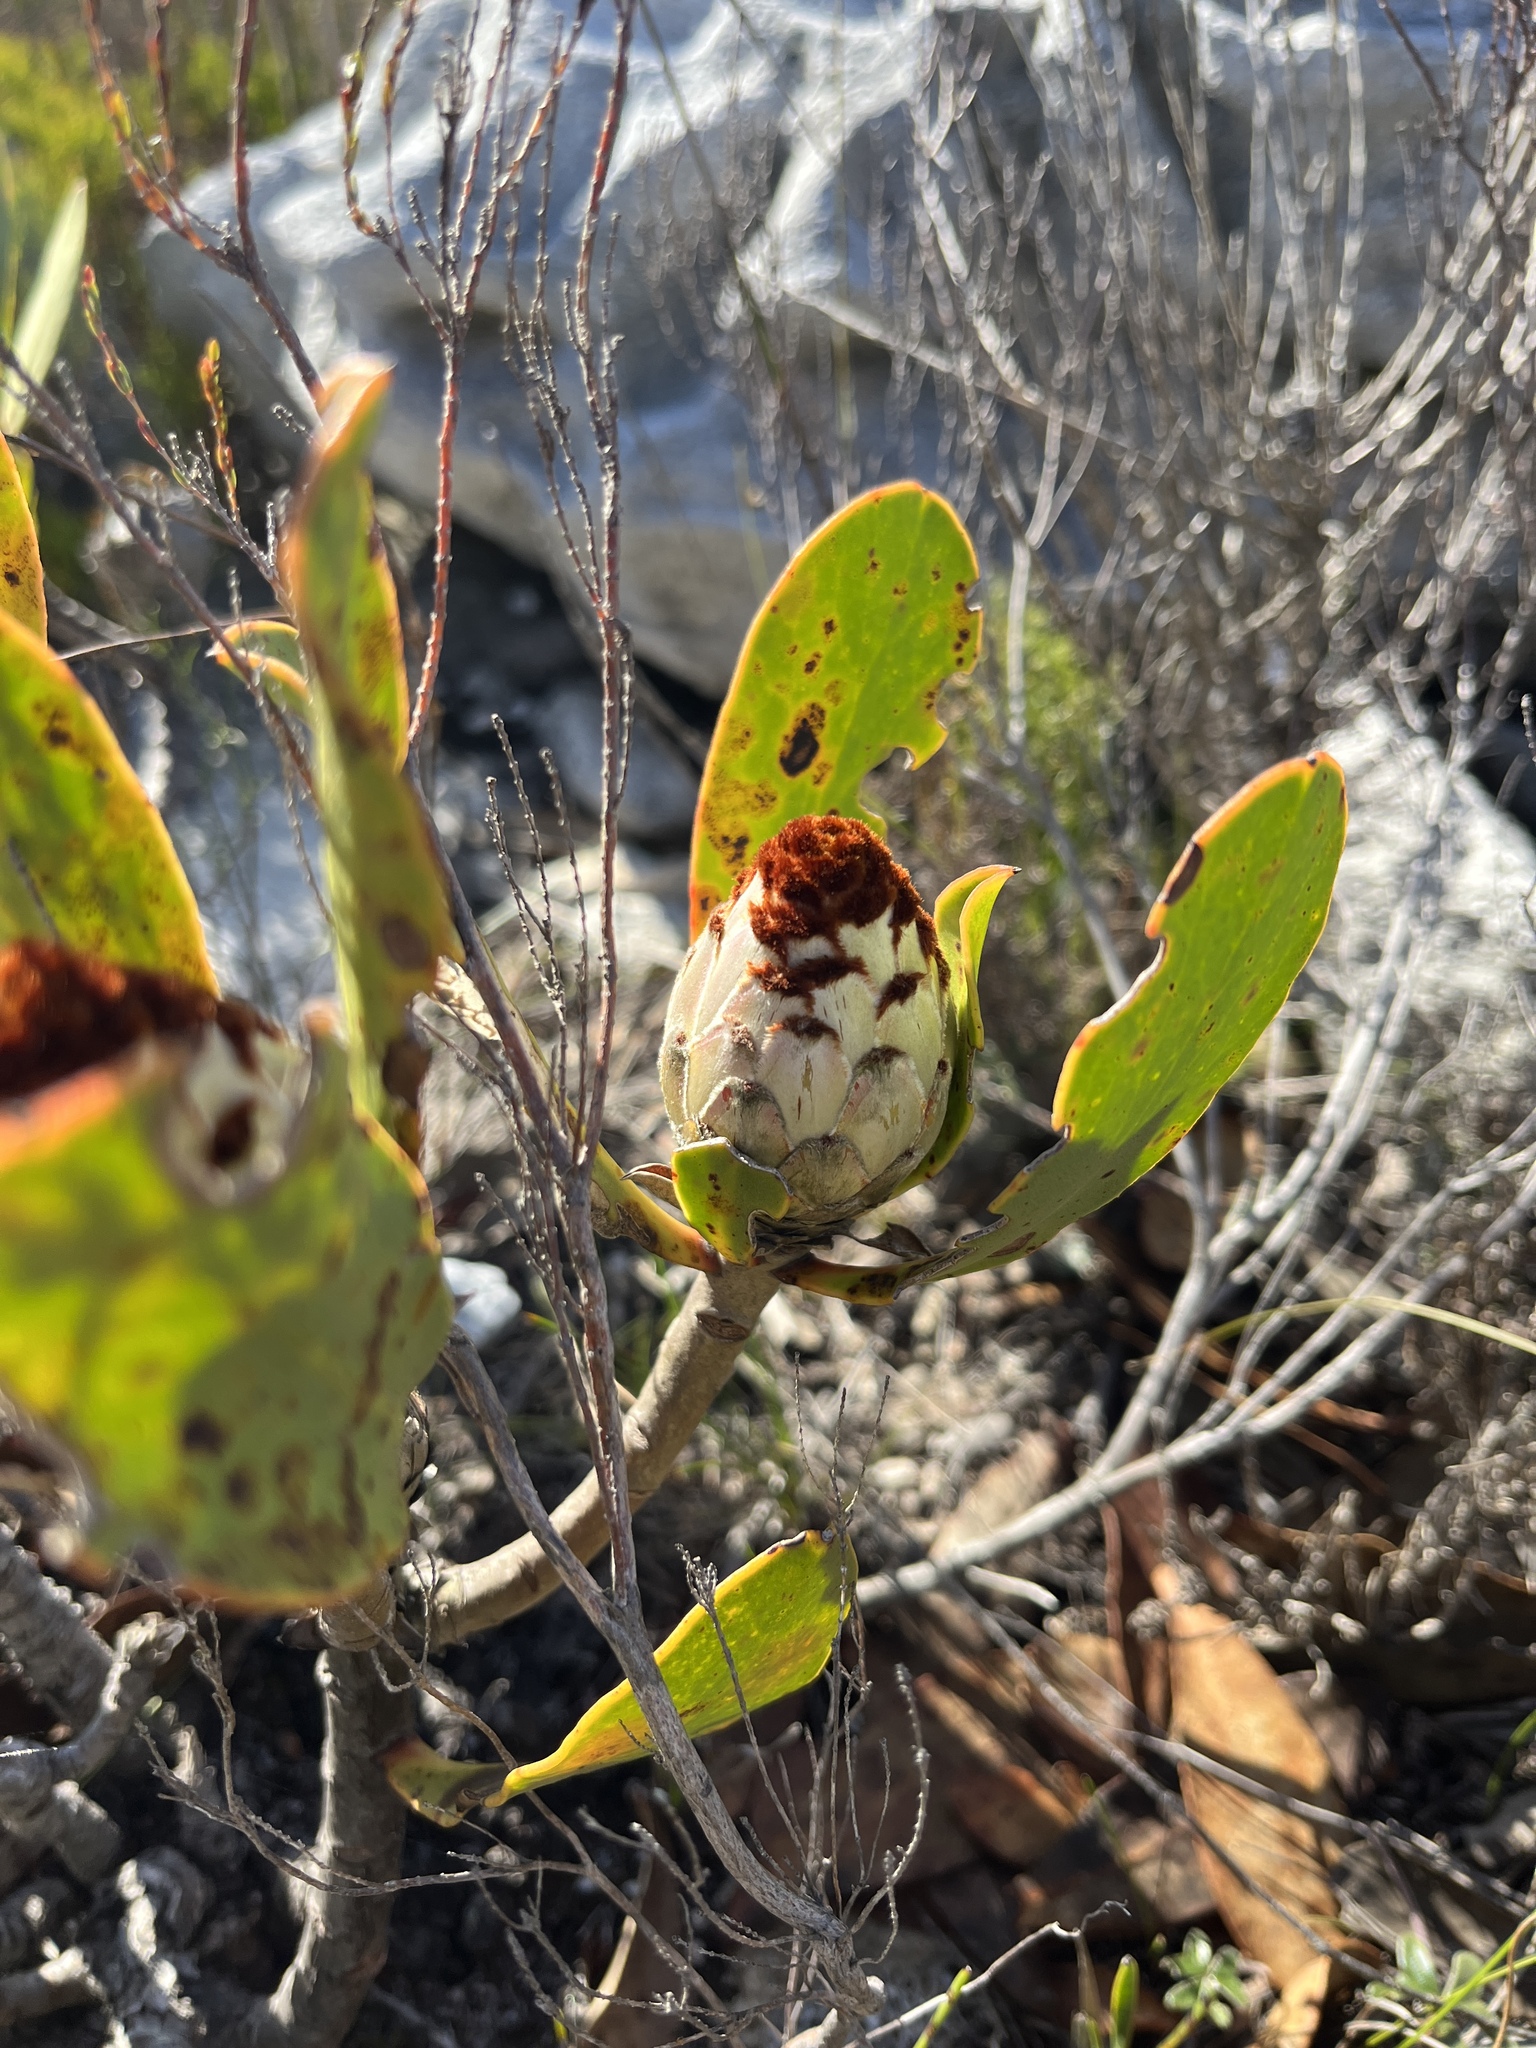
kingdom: Plantae
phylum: Tracheophyta
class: Magnoliopsida
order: Proteales
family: Proteaceae
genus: Protea
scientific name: Protea speciosa
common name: Brown-beard sugarbush
